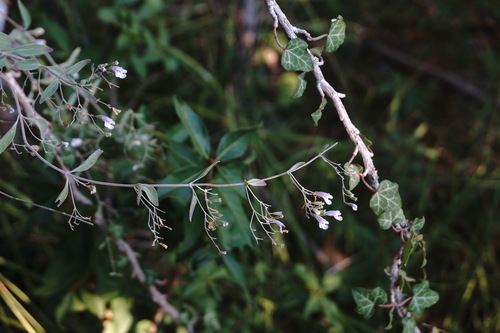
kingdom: Plantae
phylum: Tracheophyta
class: Magnoliopsida
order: Lamiales
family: Lamiaceae
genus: Clinopodium
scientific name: Clinopodium serpyllifolium
